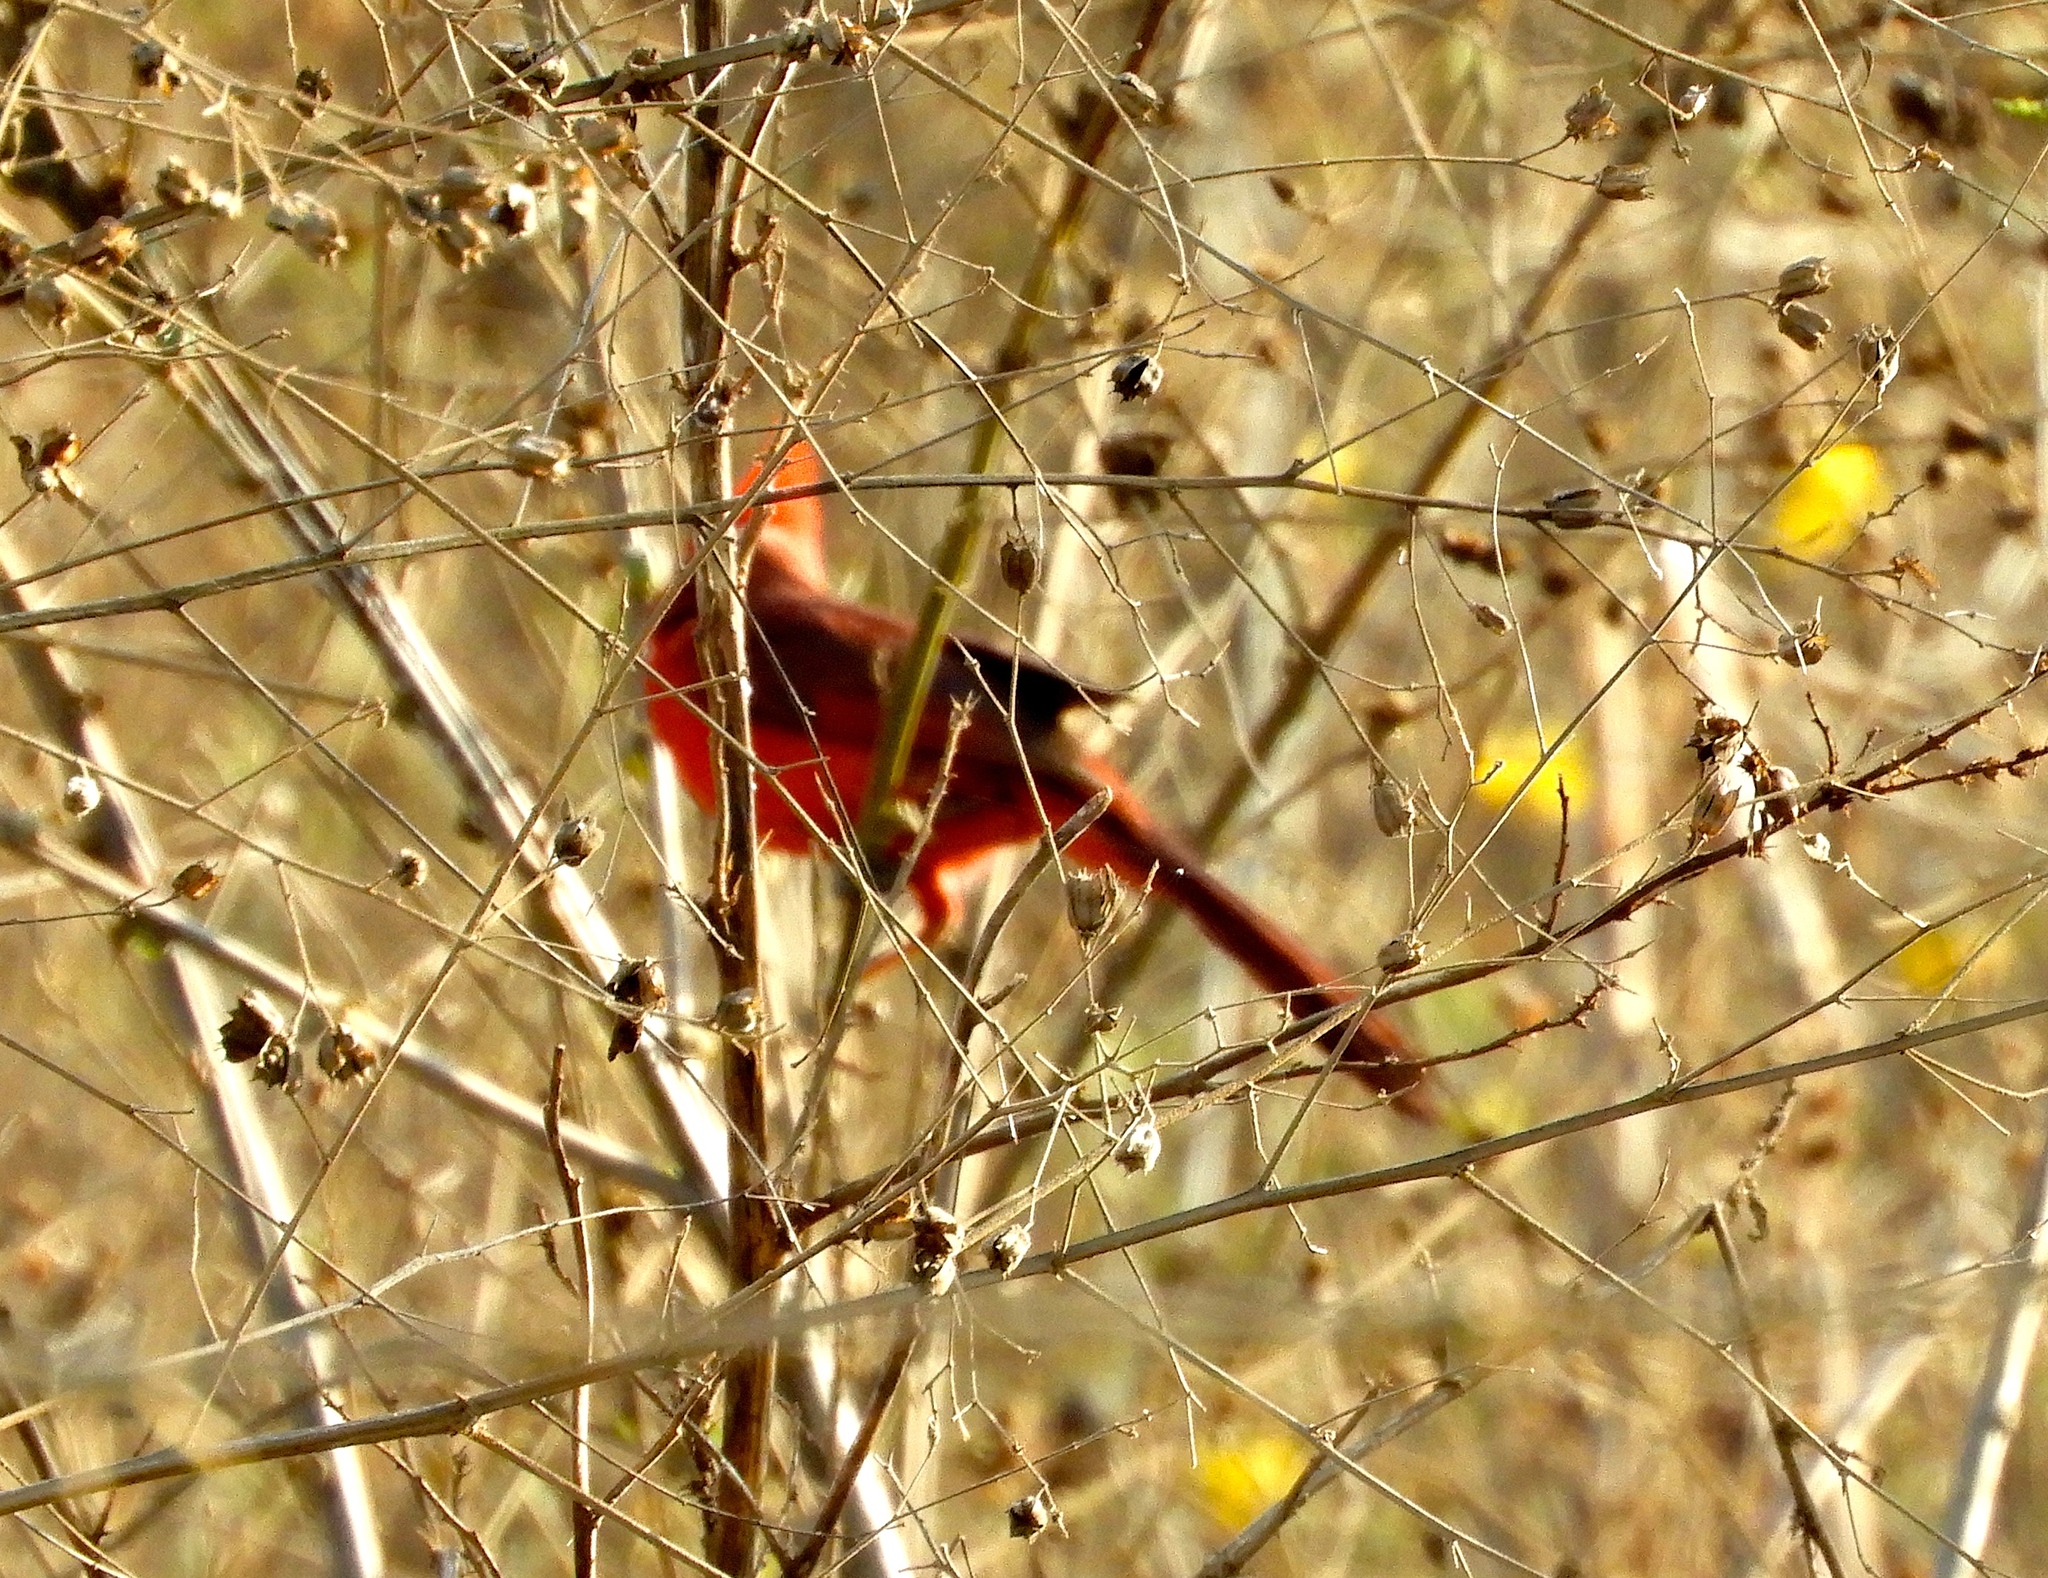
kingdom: Animalia
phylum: Chordata
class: Aves
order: Passeriformes
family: Cardinalidae
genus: Cardinalis
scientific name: Cardinalis cardinalis
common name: Northern cardinal
